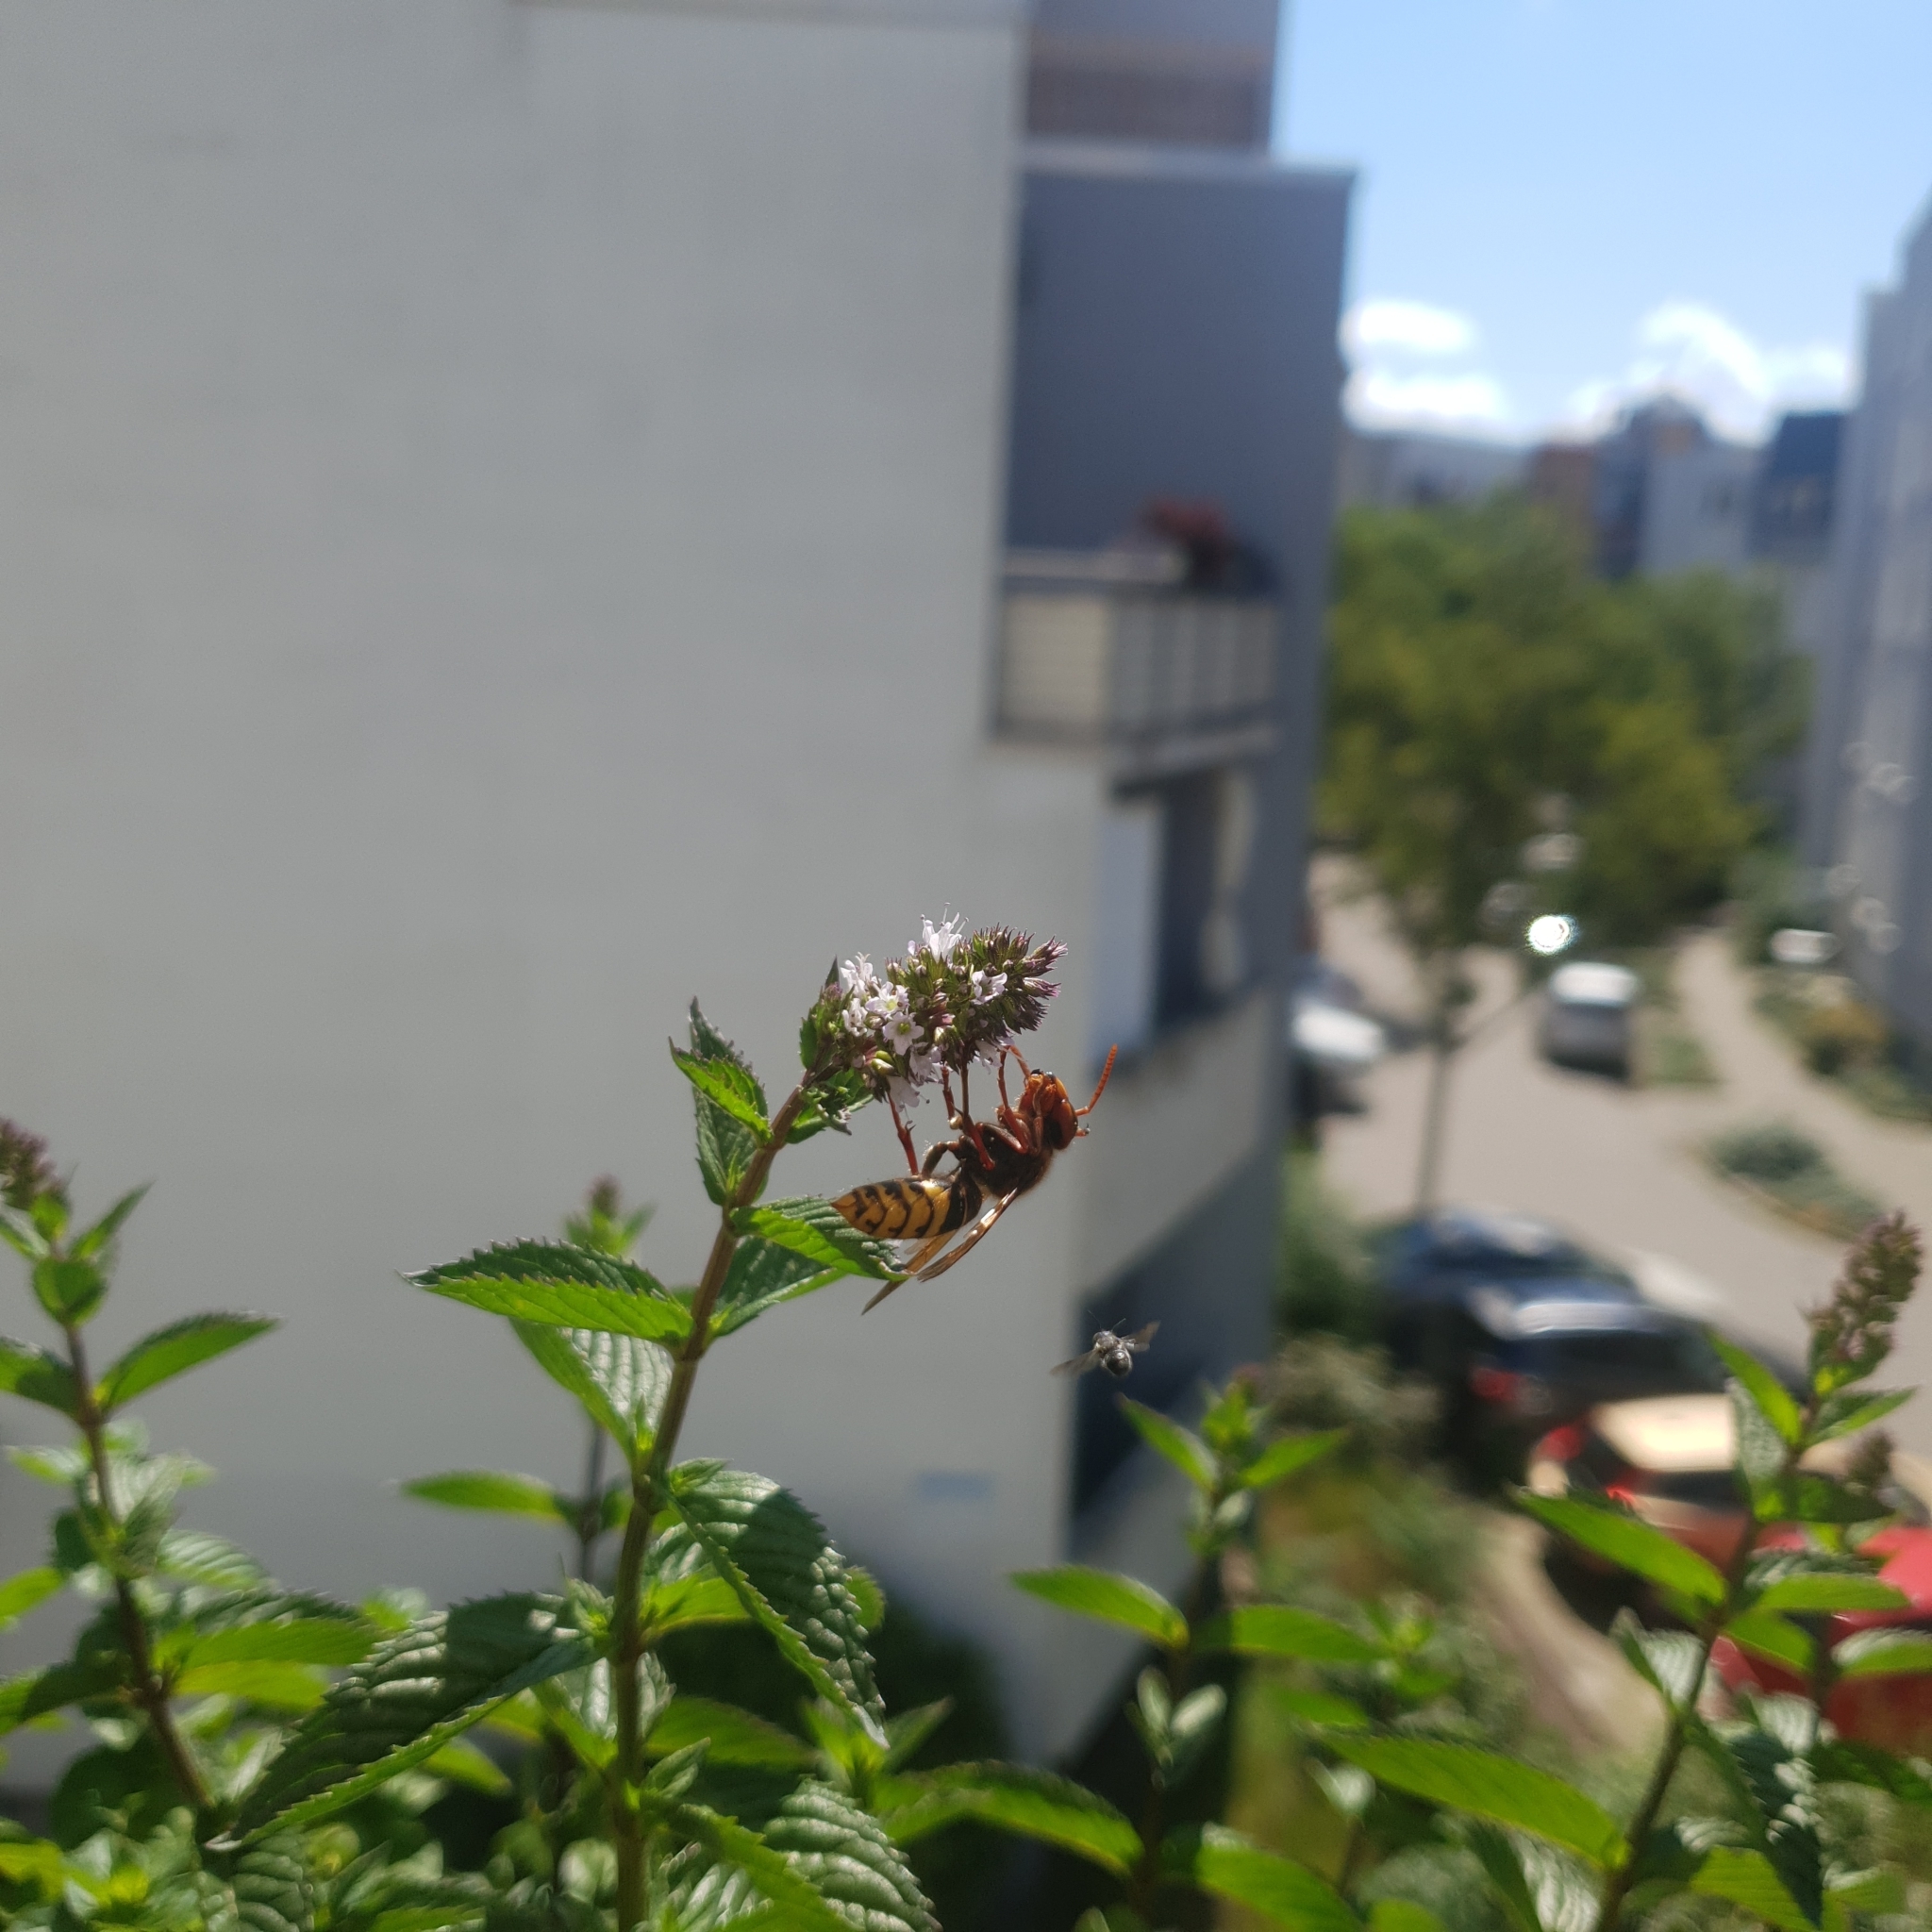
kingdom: Animalia
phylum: Arthropoda
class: Insecta
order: Hymenoptera
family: Vespidae
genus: Vespa
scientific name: Vespa crabro
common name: Hornet
